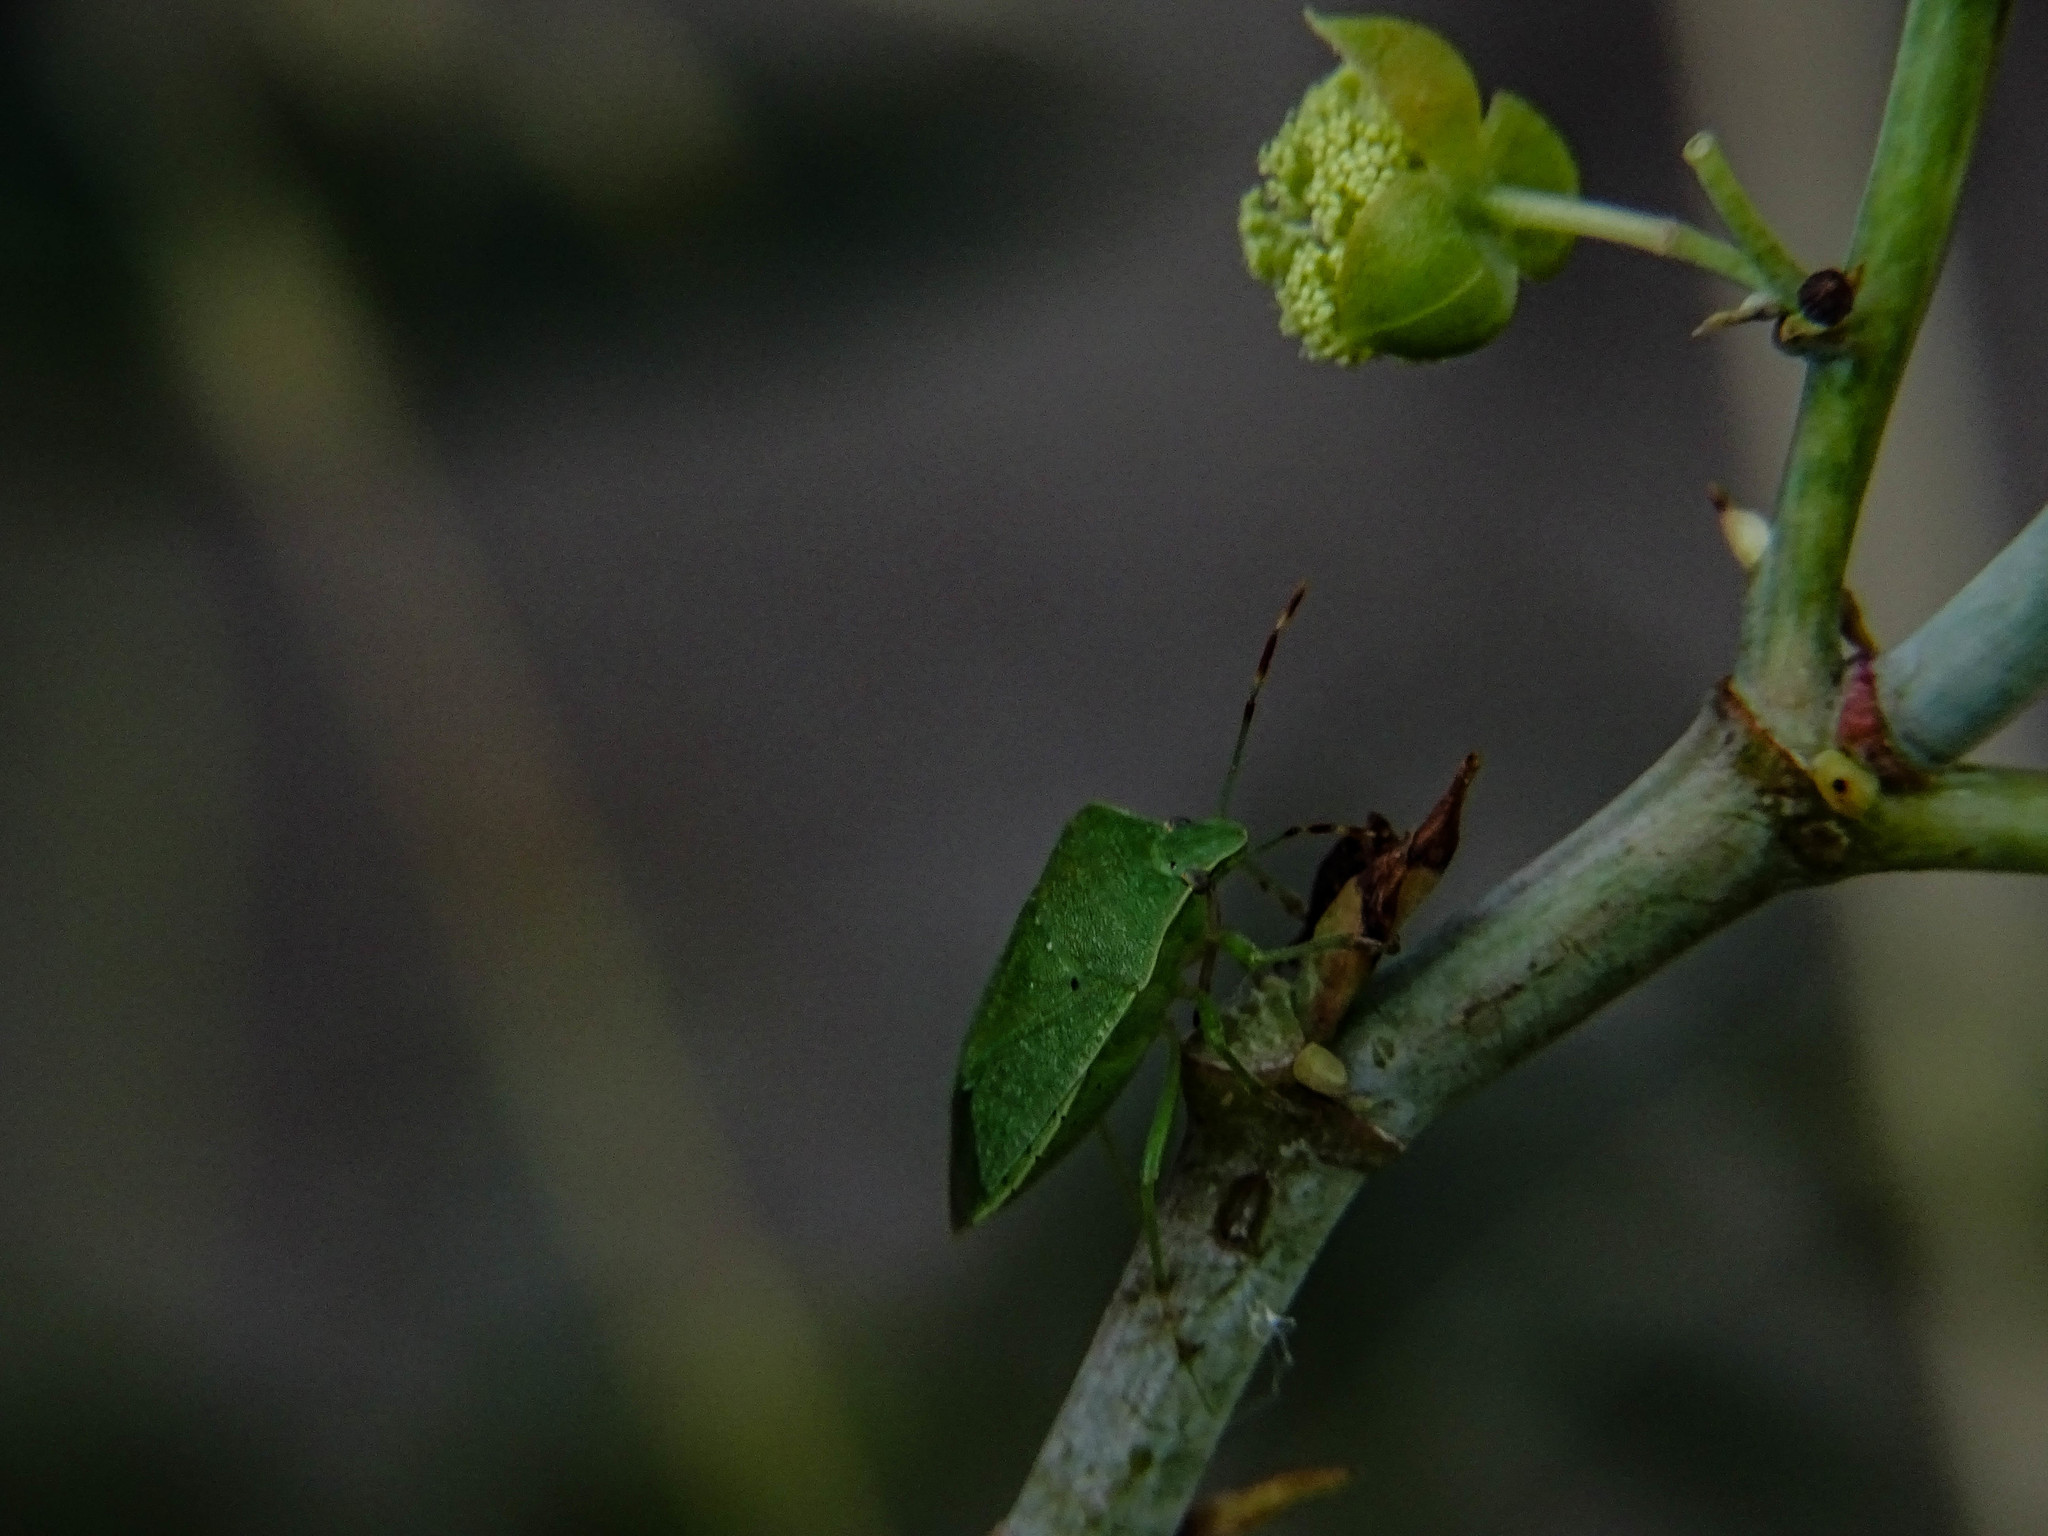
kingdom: Animalia
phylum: Arthropoda
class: Insecta
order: Hemiptera
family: Pentatomidae
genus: Nezara
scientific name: Nezara viridula
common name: Southern green stink bug
